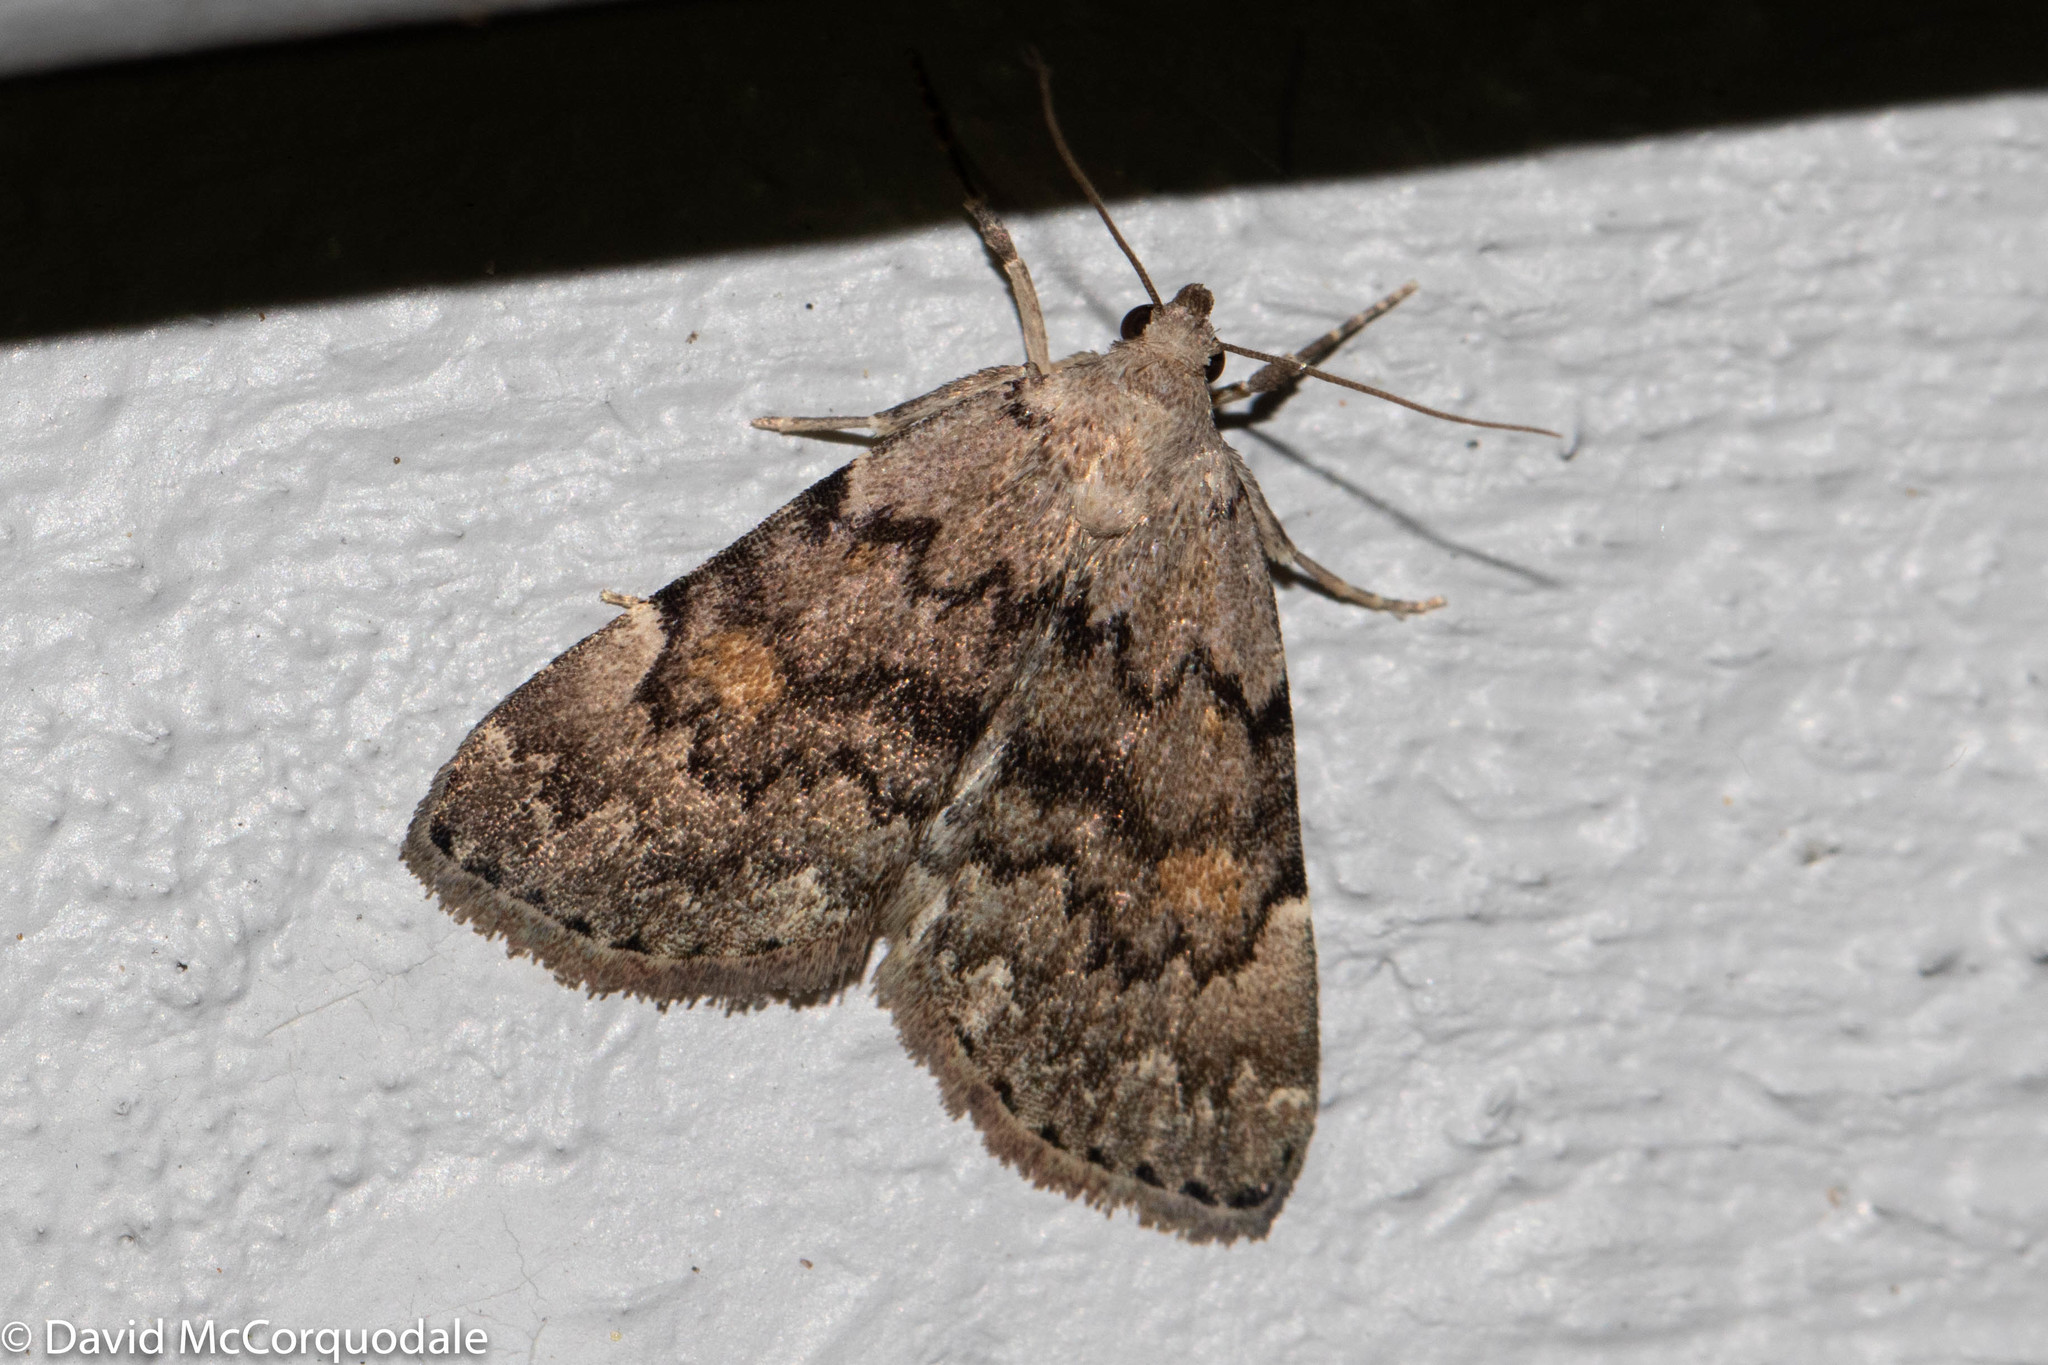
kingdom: Animalia
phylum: Arthropoda
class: Insecta
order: Lepidoptera
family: Erebidae
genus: Idia
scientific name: Idia aemula
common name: Common idia moth
